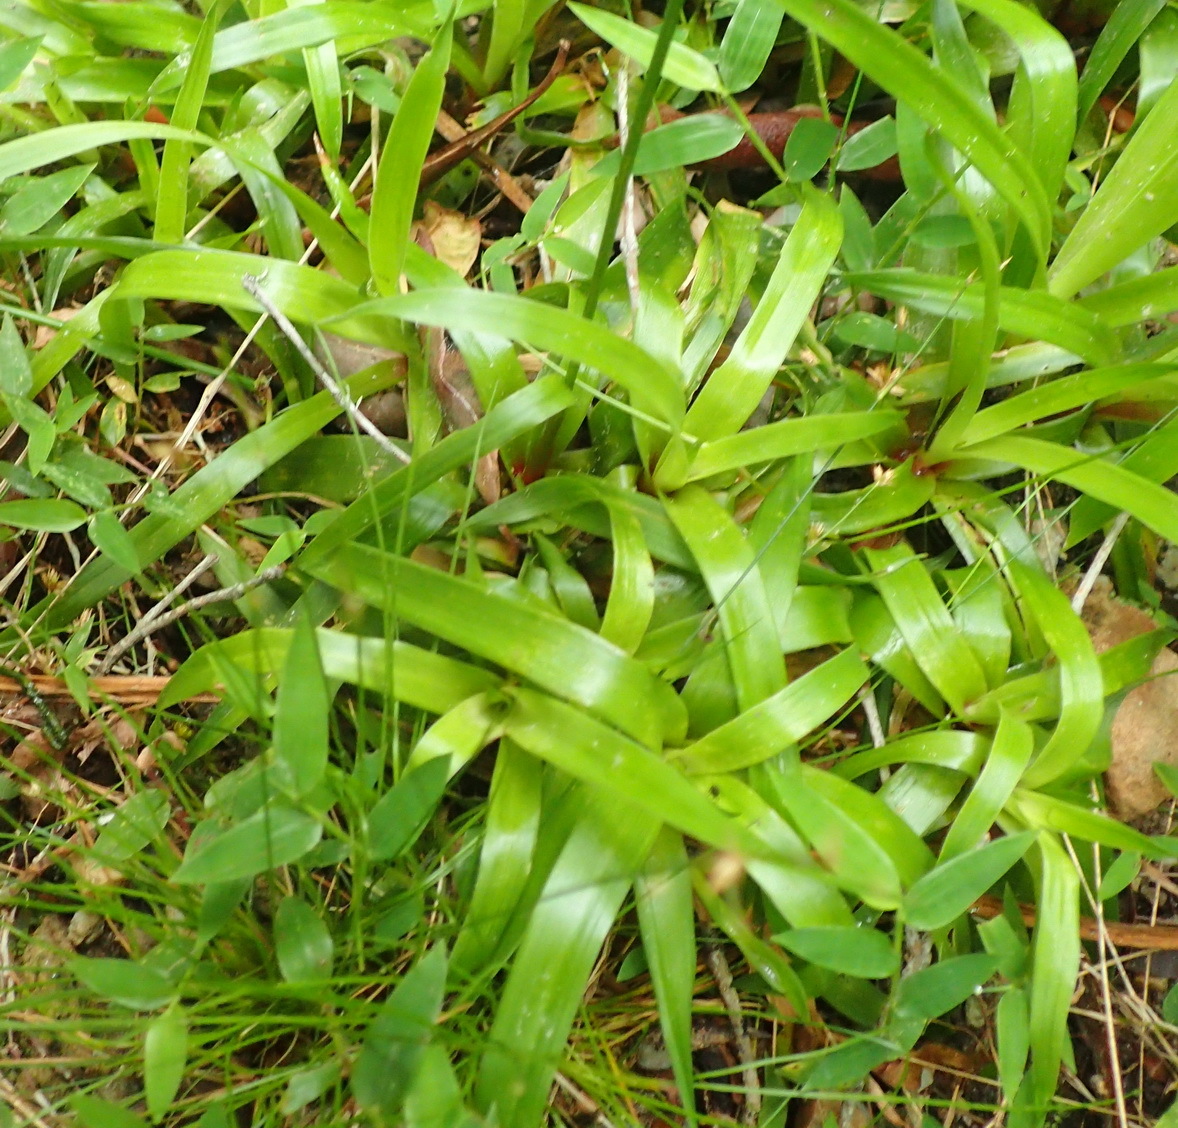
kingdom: Plantae
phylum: Tracheophyta
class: Liliopsida
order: Poales
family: Juncaceae
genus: Juncus
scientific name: Juncus capensis
